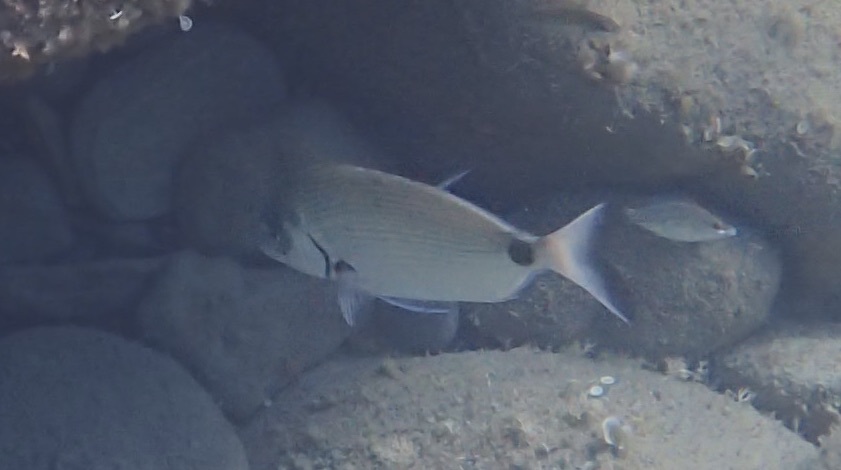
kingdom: Animalia
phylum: Chordata
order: Perciformes
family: Sparidae
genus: Diplodus
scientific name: Diplodus sargus
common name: White seabream
